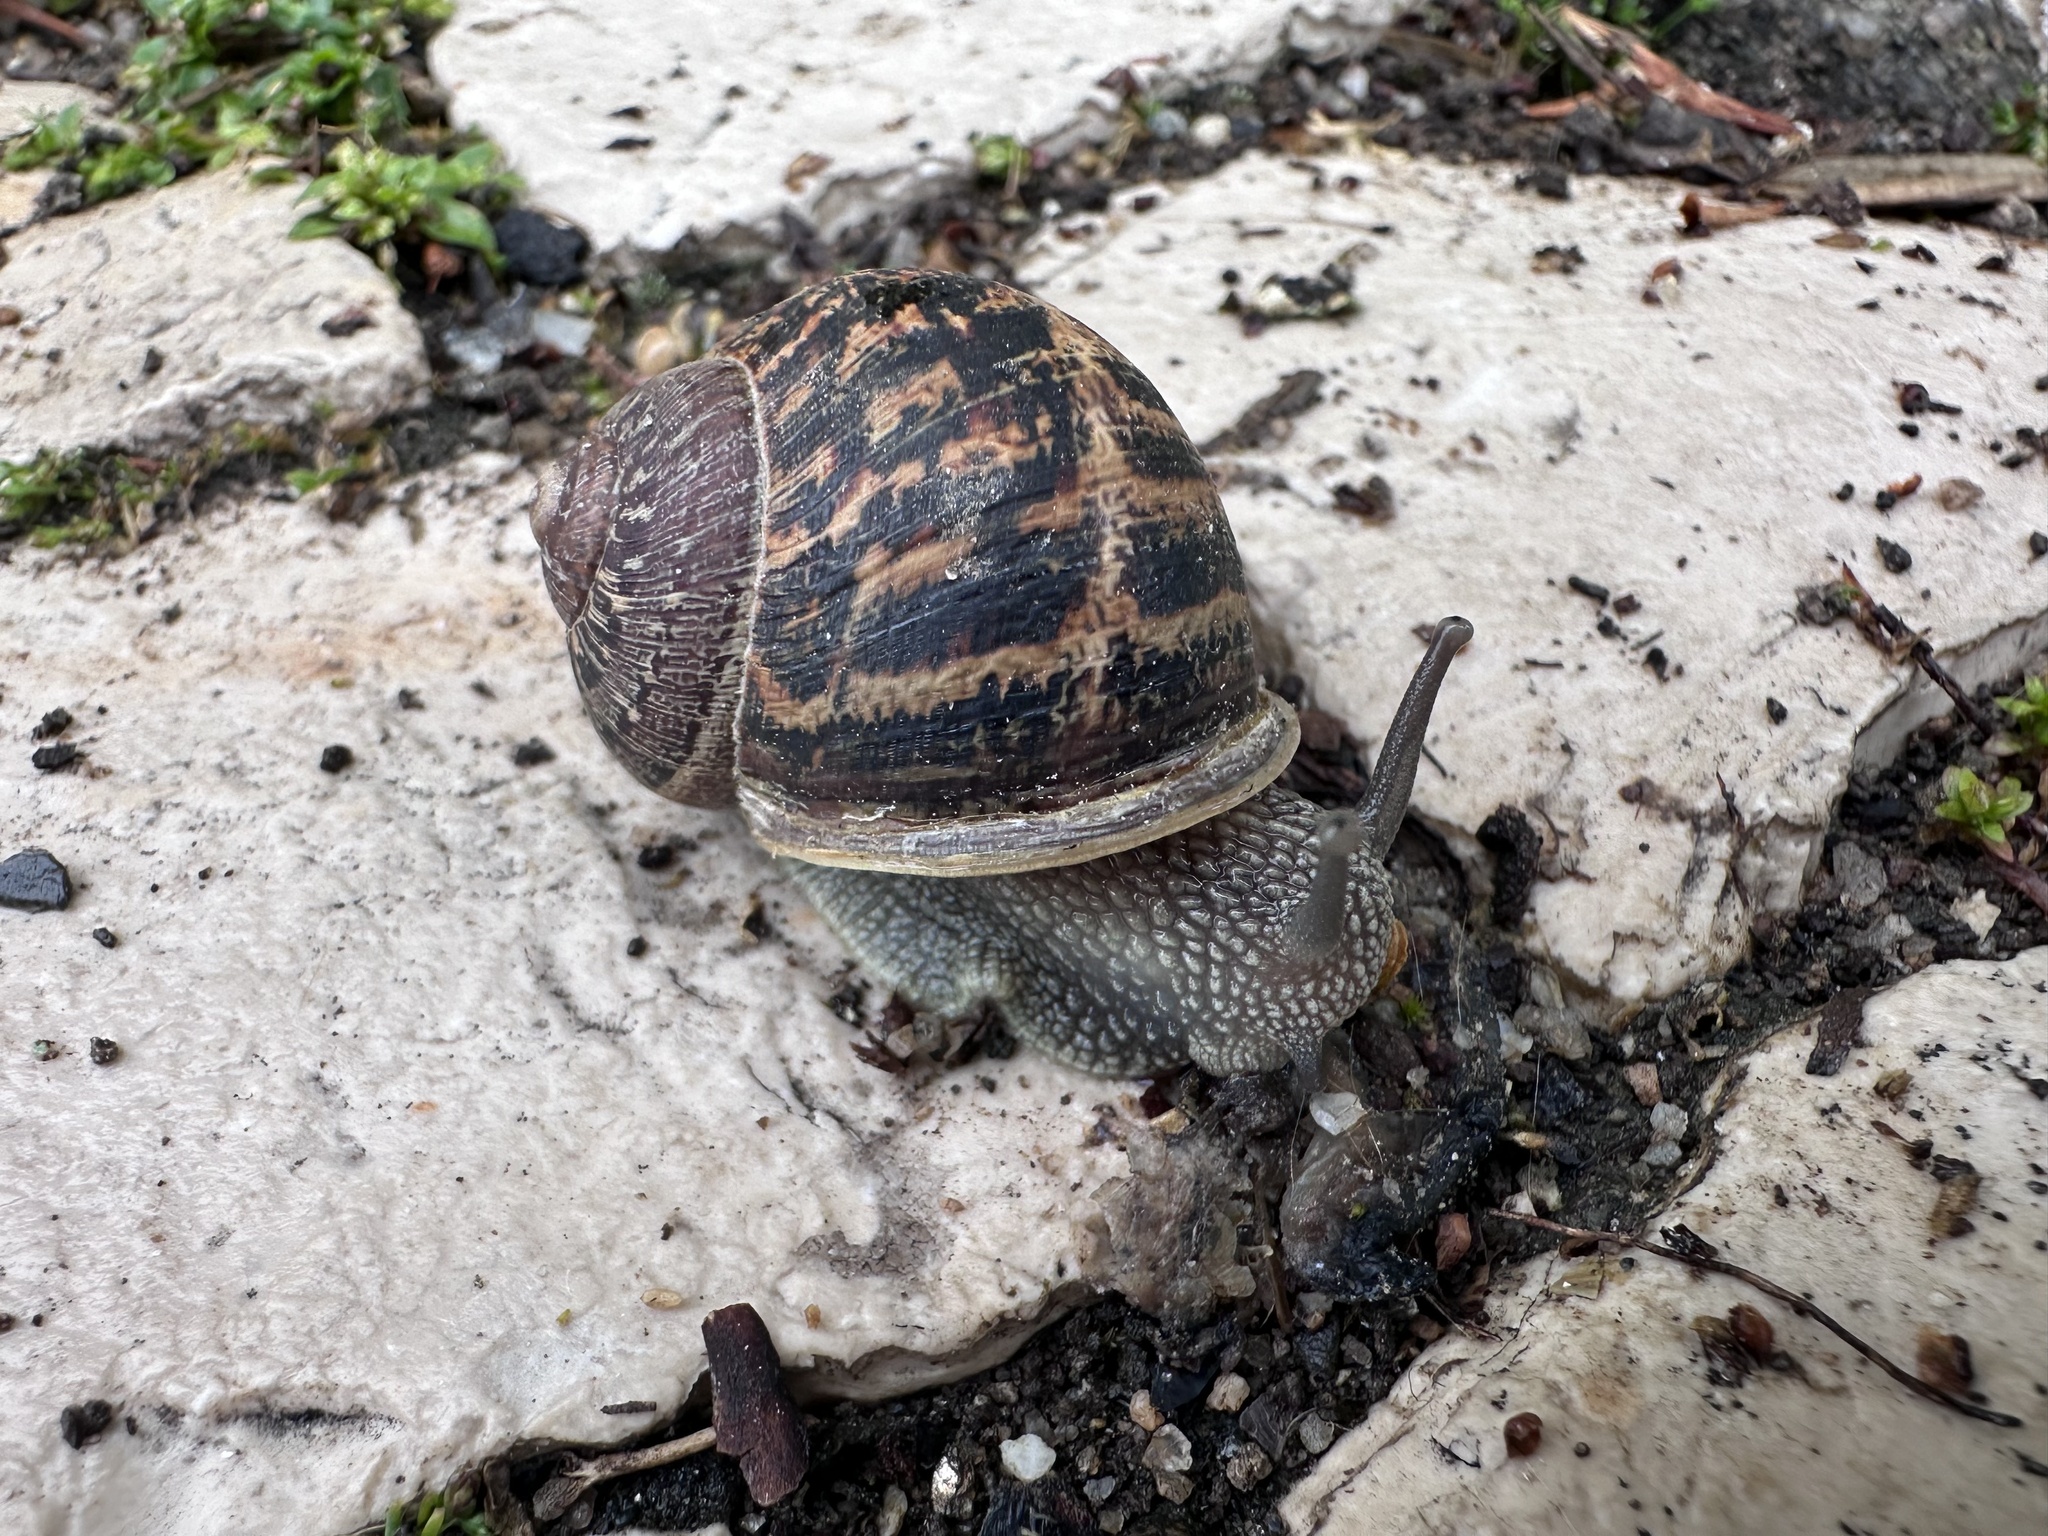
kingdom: Animalia
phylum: Mollusca
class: Gastropoda
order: Stylommatophora
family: Helicidae
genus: Cornu
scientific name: Cornu aspersum
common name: Brown garden snail
